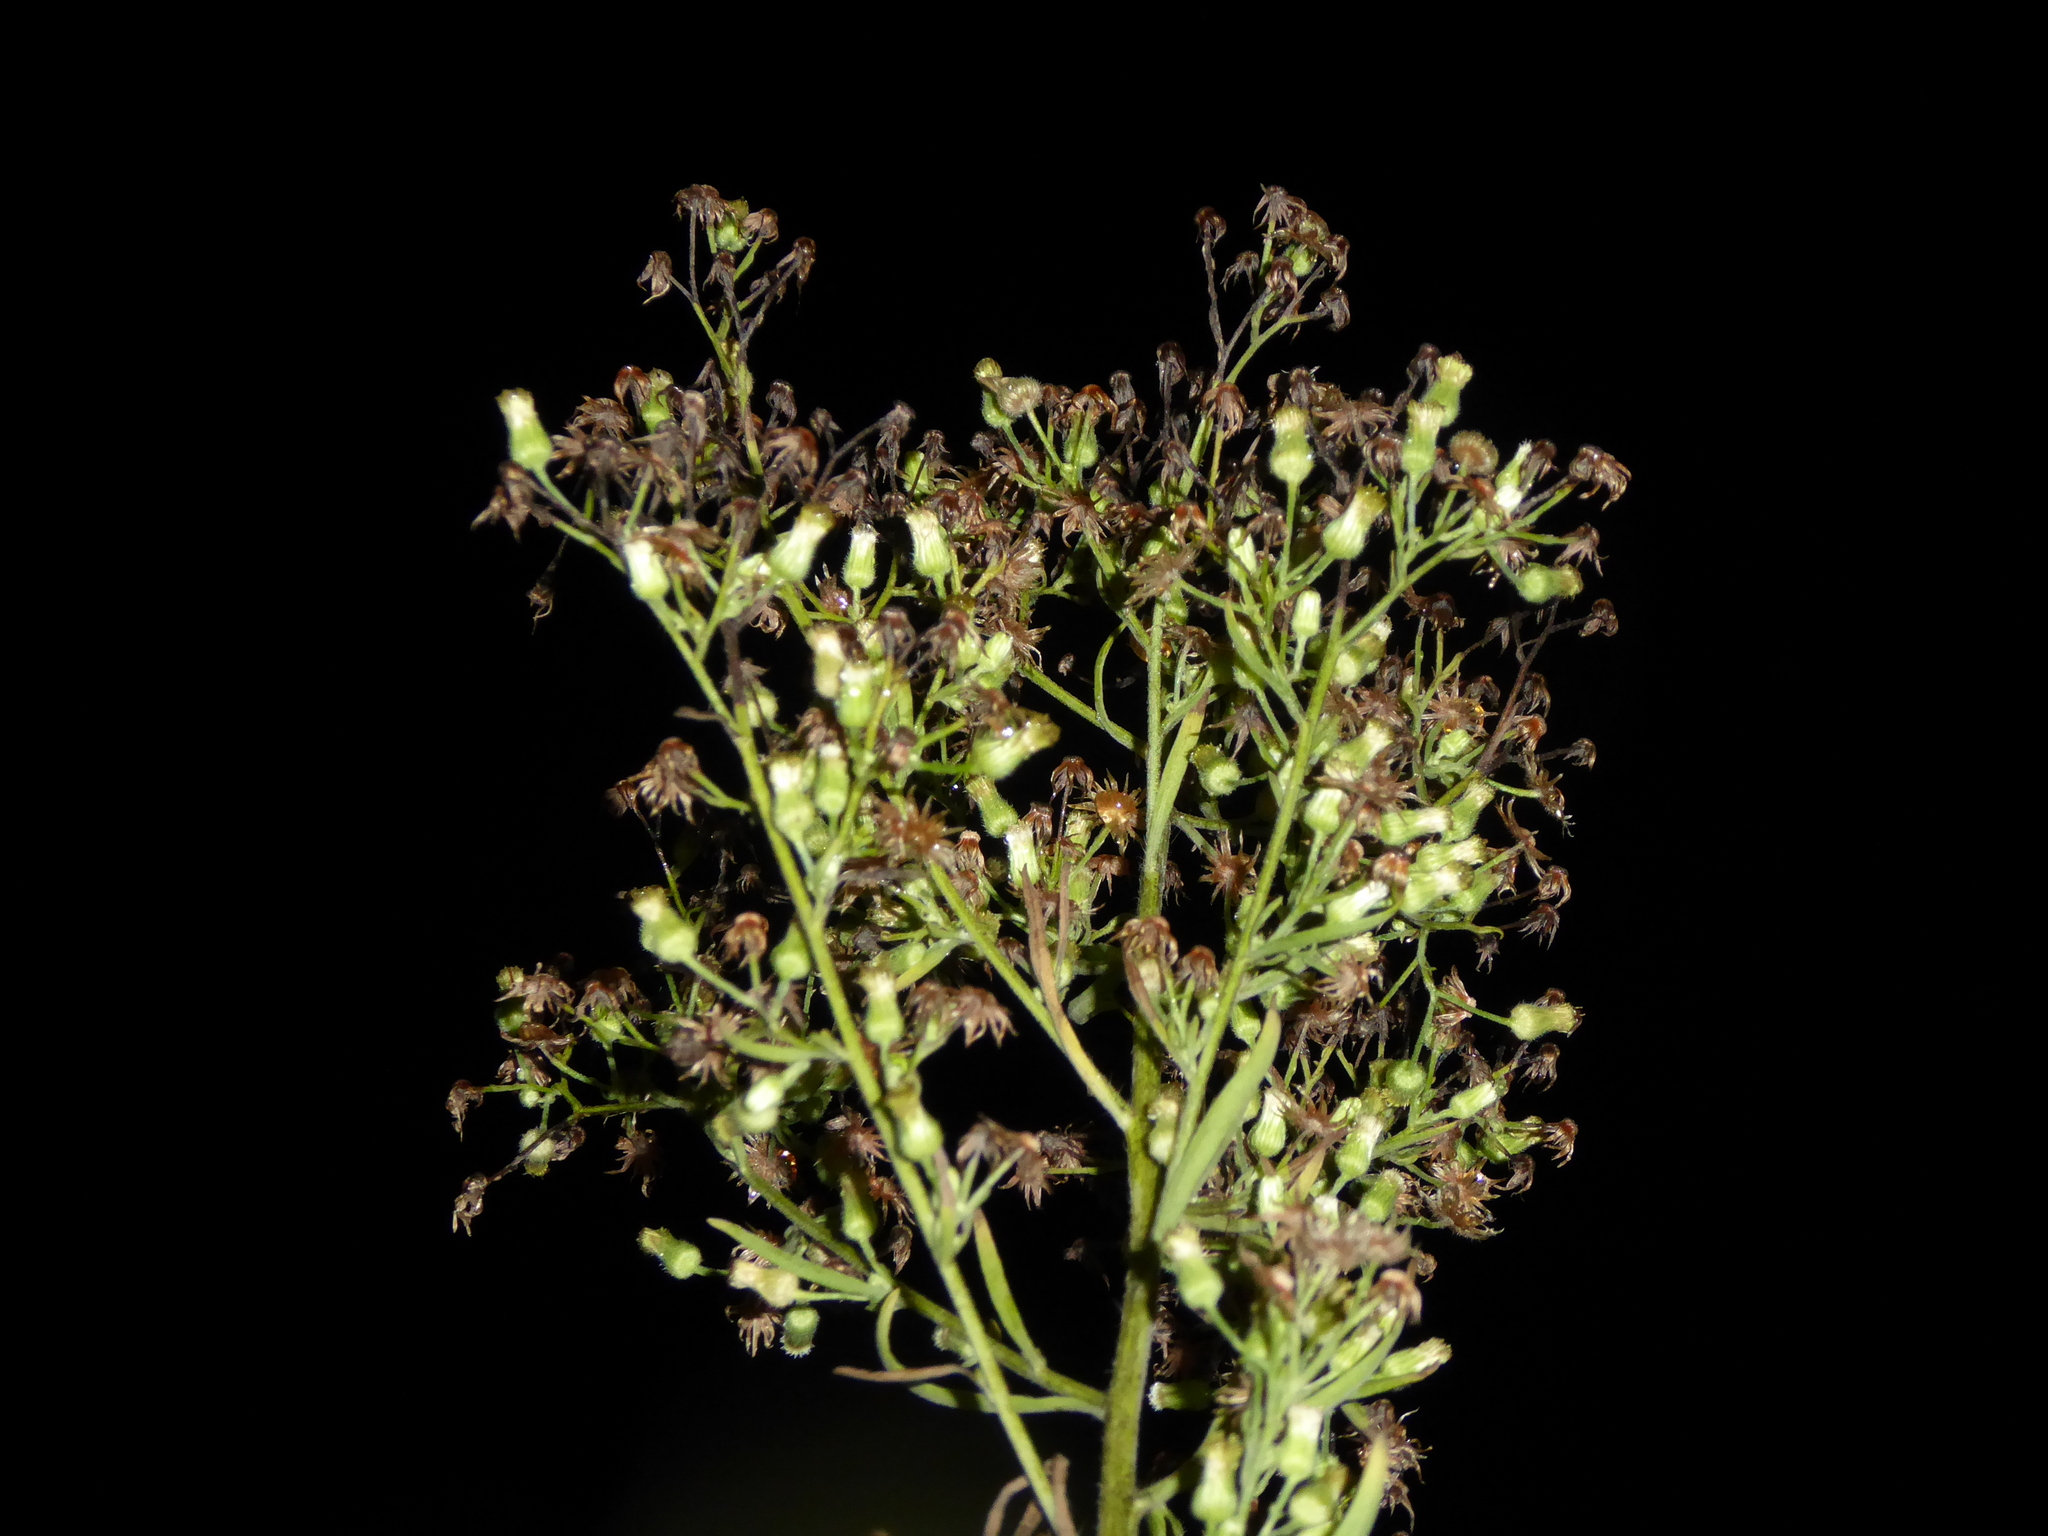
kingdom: Plantae
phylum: Tracheophyta
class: Magnoliopsida
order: Asterales
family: Asteraceae
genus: Erigeron
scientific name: Erigeron sumatrensis
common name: Daisy
